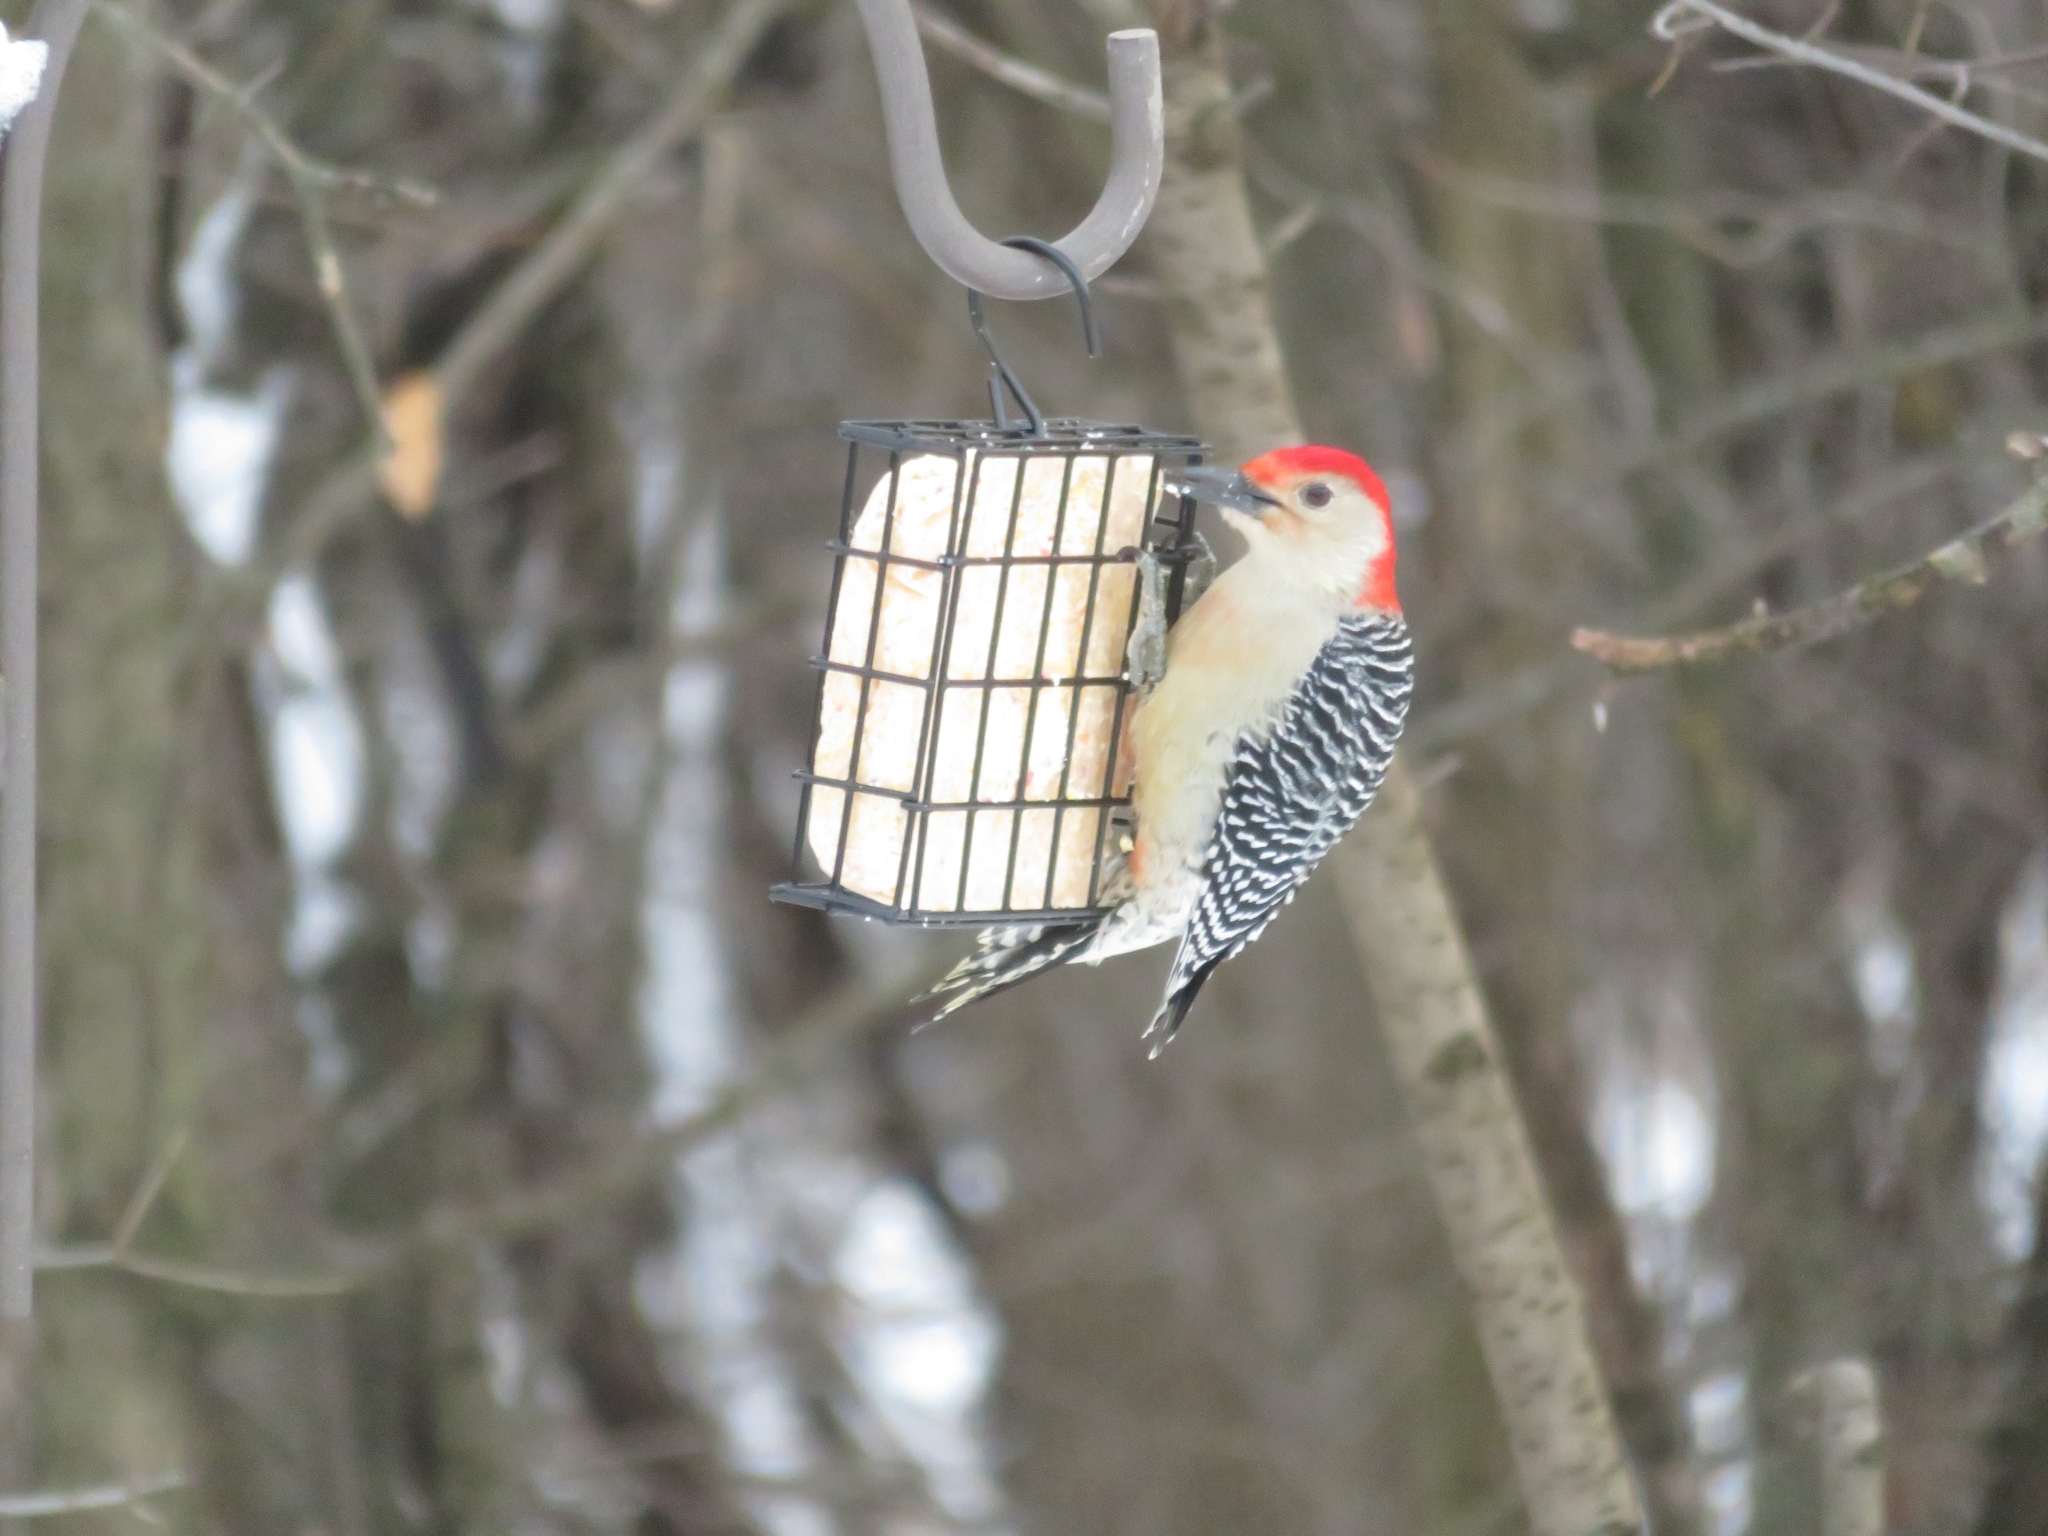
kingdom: Animalia
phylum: Chordata
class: Aves
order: Piciformes
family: Picidae
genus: Melanerpes
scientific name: Melanerpes carolinus
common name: Red-bellied woodpecker
